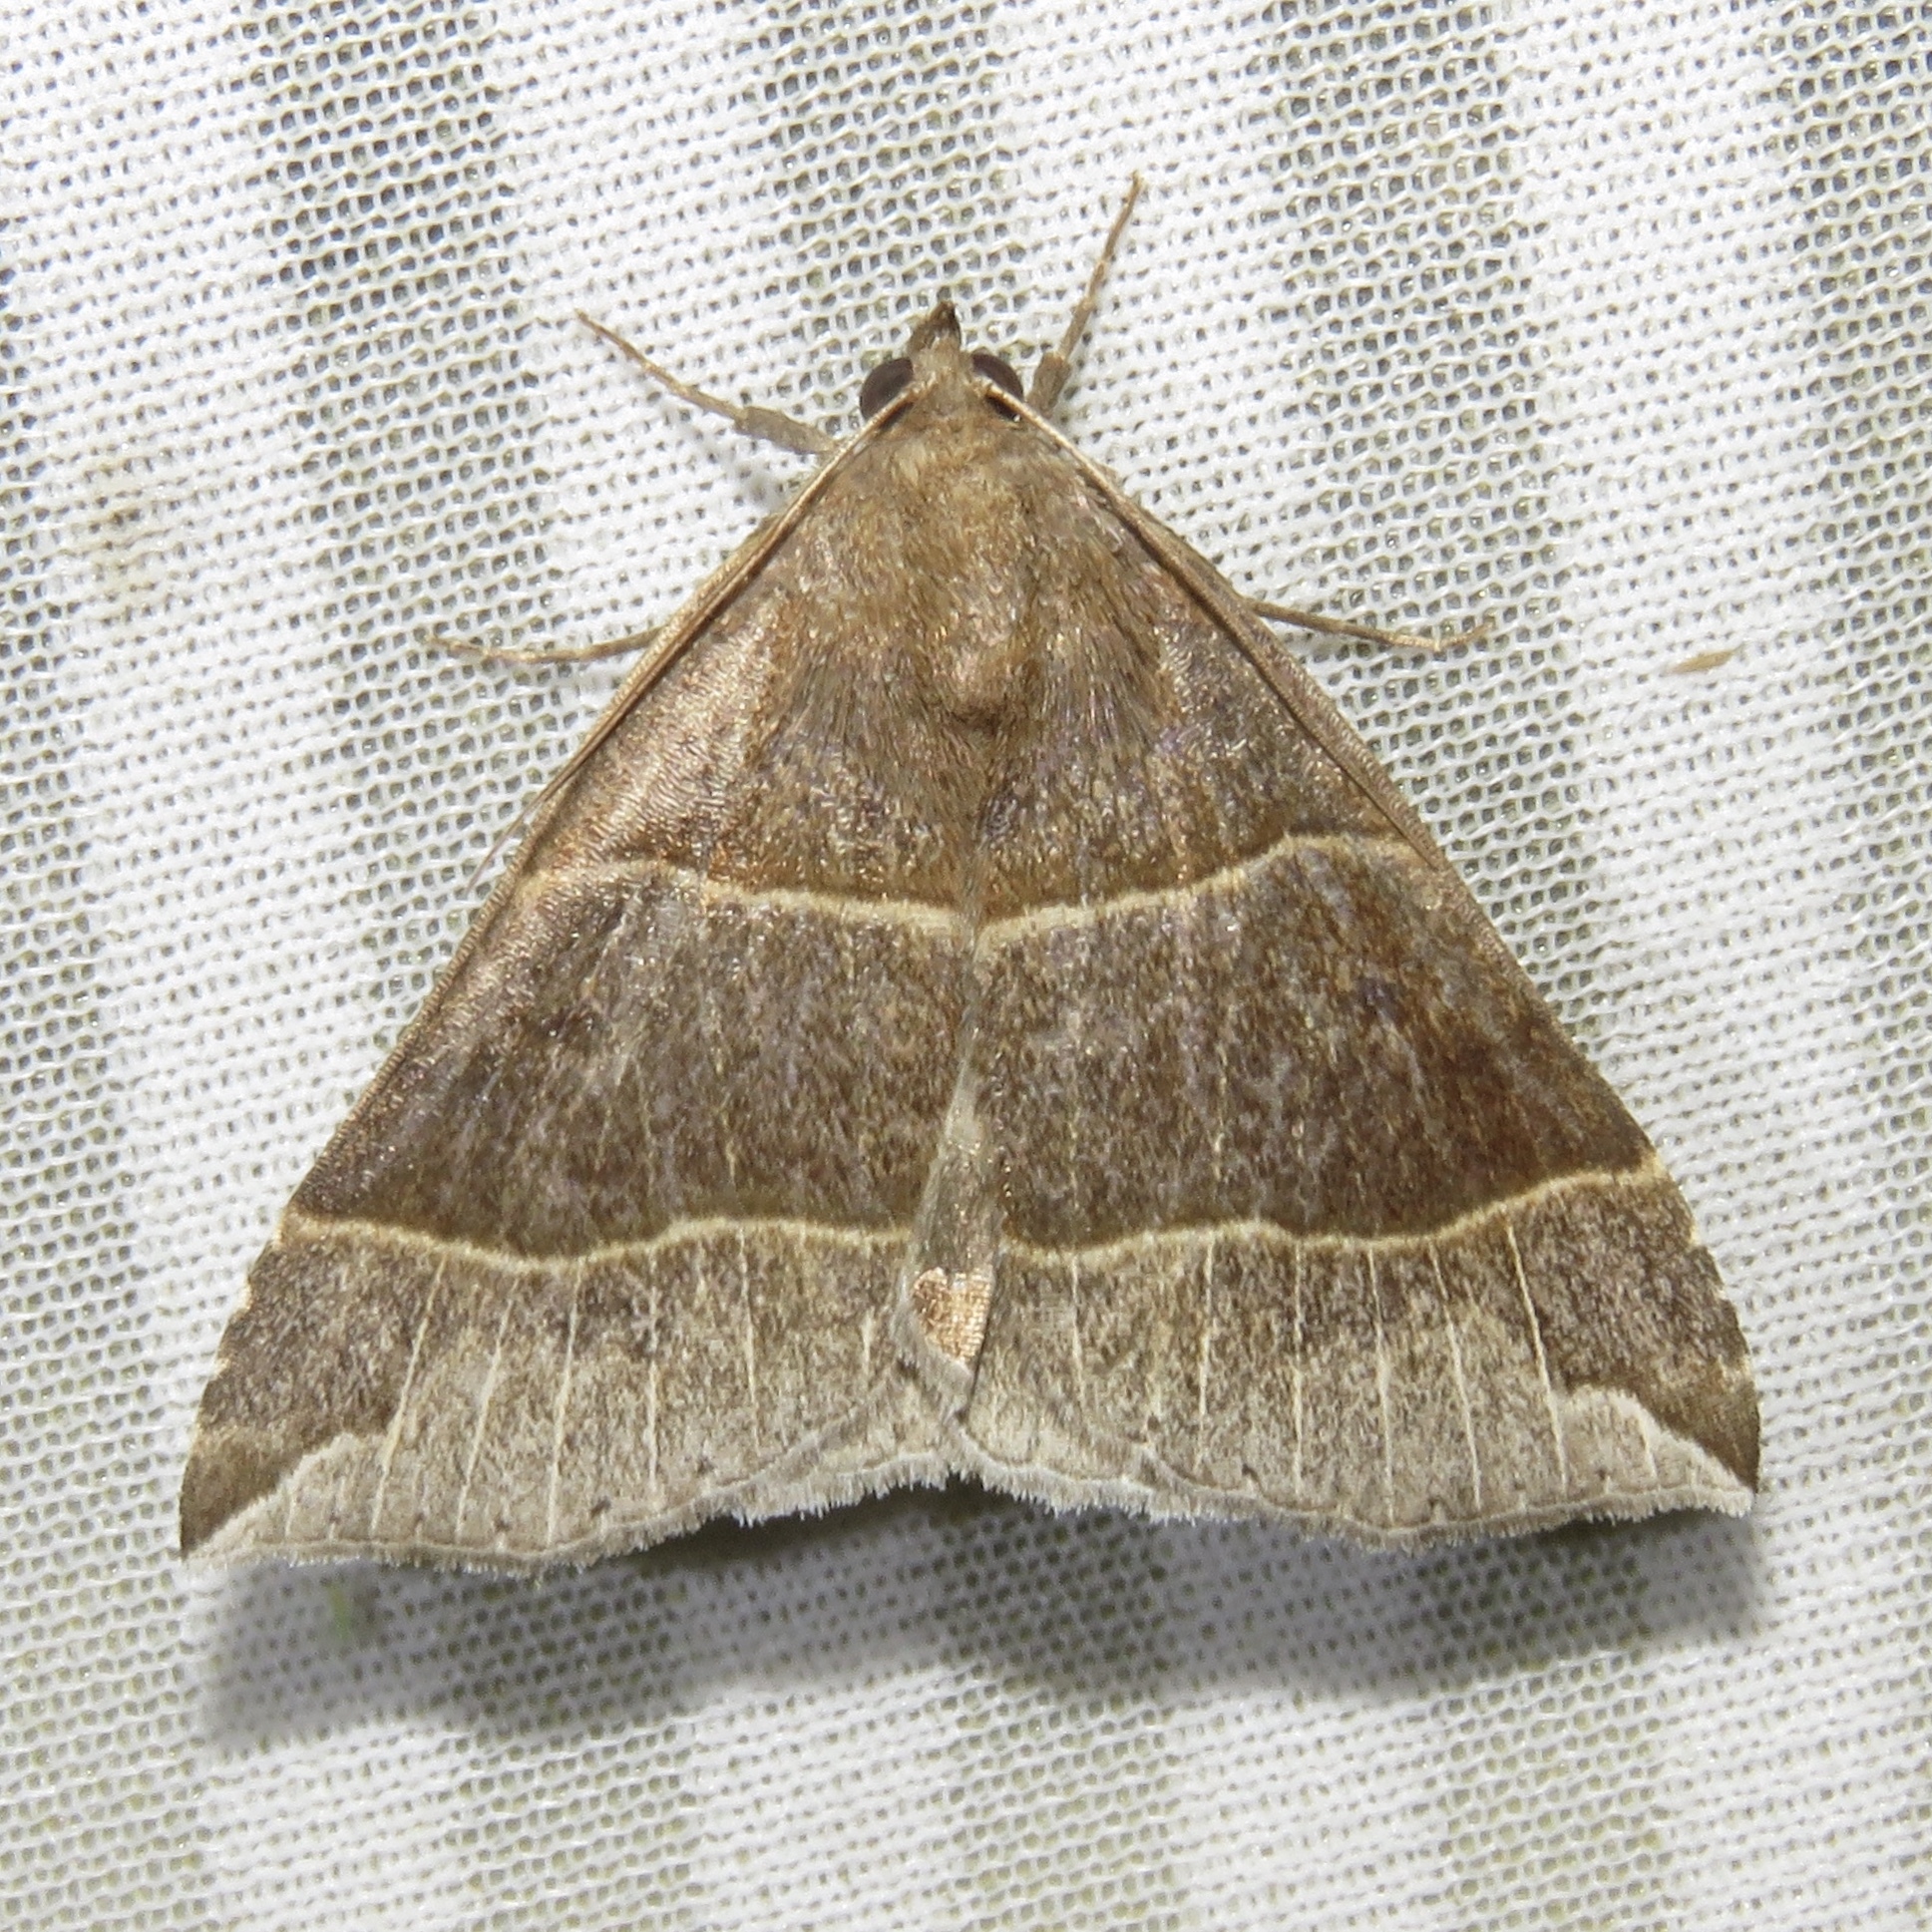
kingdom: Animalia
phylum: Arthropoda
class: Insecta
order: Lepidoptera
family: Erebidae
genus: Parallelia
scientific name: Parallelia bistriaris
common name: Maple looper moth
